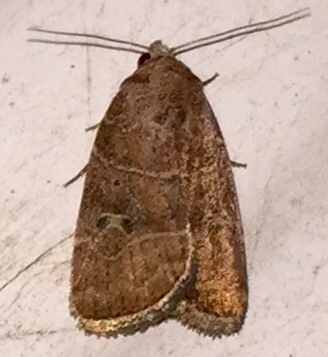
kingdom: Animalia
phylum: Arthropoda
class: Insecta
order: Lepidoptera
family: Noctuidae
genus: Elaphria
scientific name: Elaphria grata
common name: Grateful midget moth
